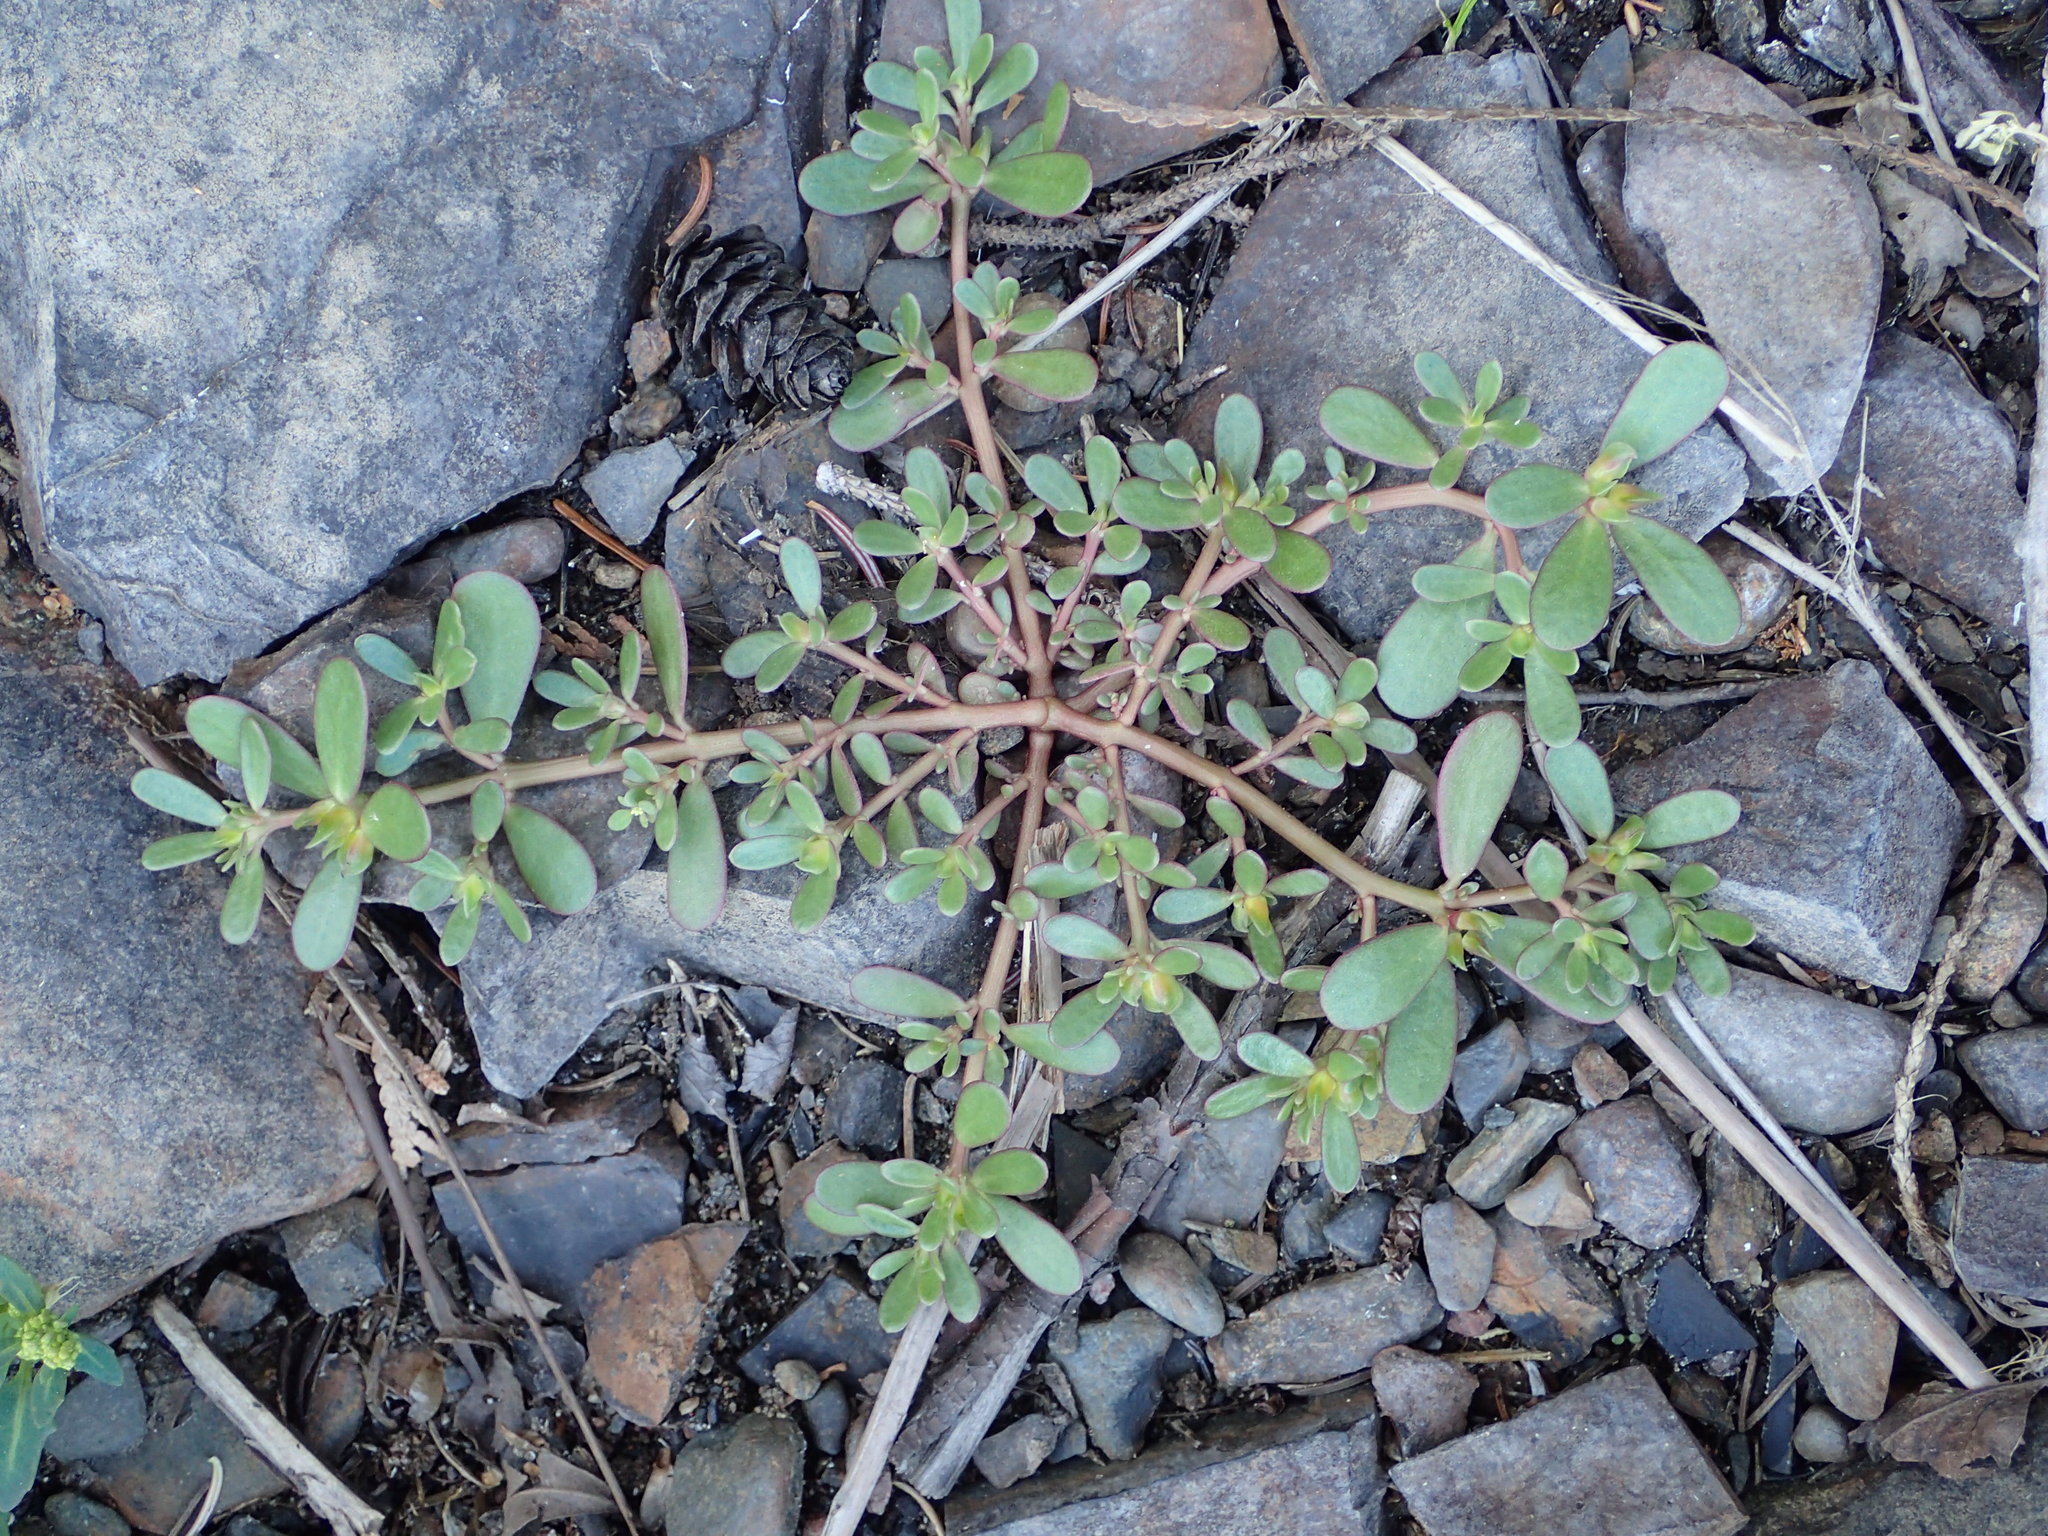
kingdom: Plantae
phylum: Tracheophyta
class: Magnoliopsida
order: Caryophyllales
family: Portulacaceae
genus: Portulaca
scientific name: Portulaca oleracea
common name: Common purslane
